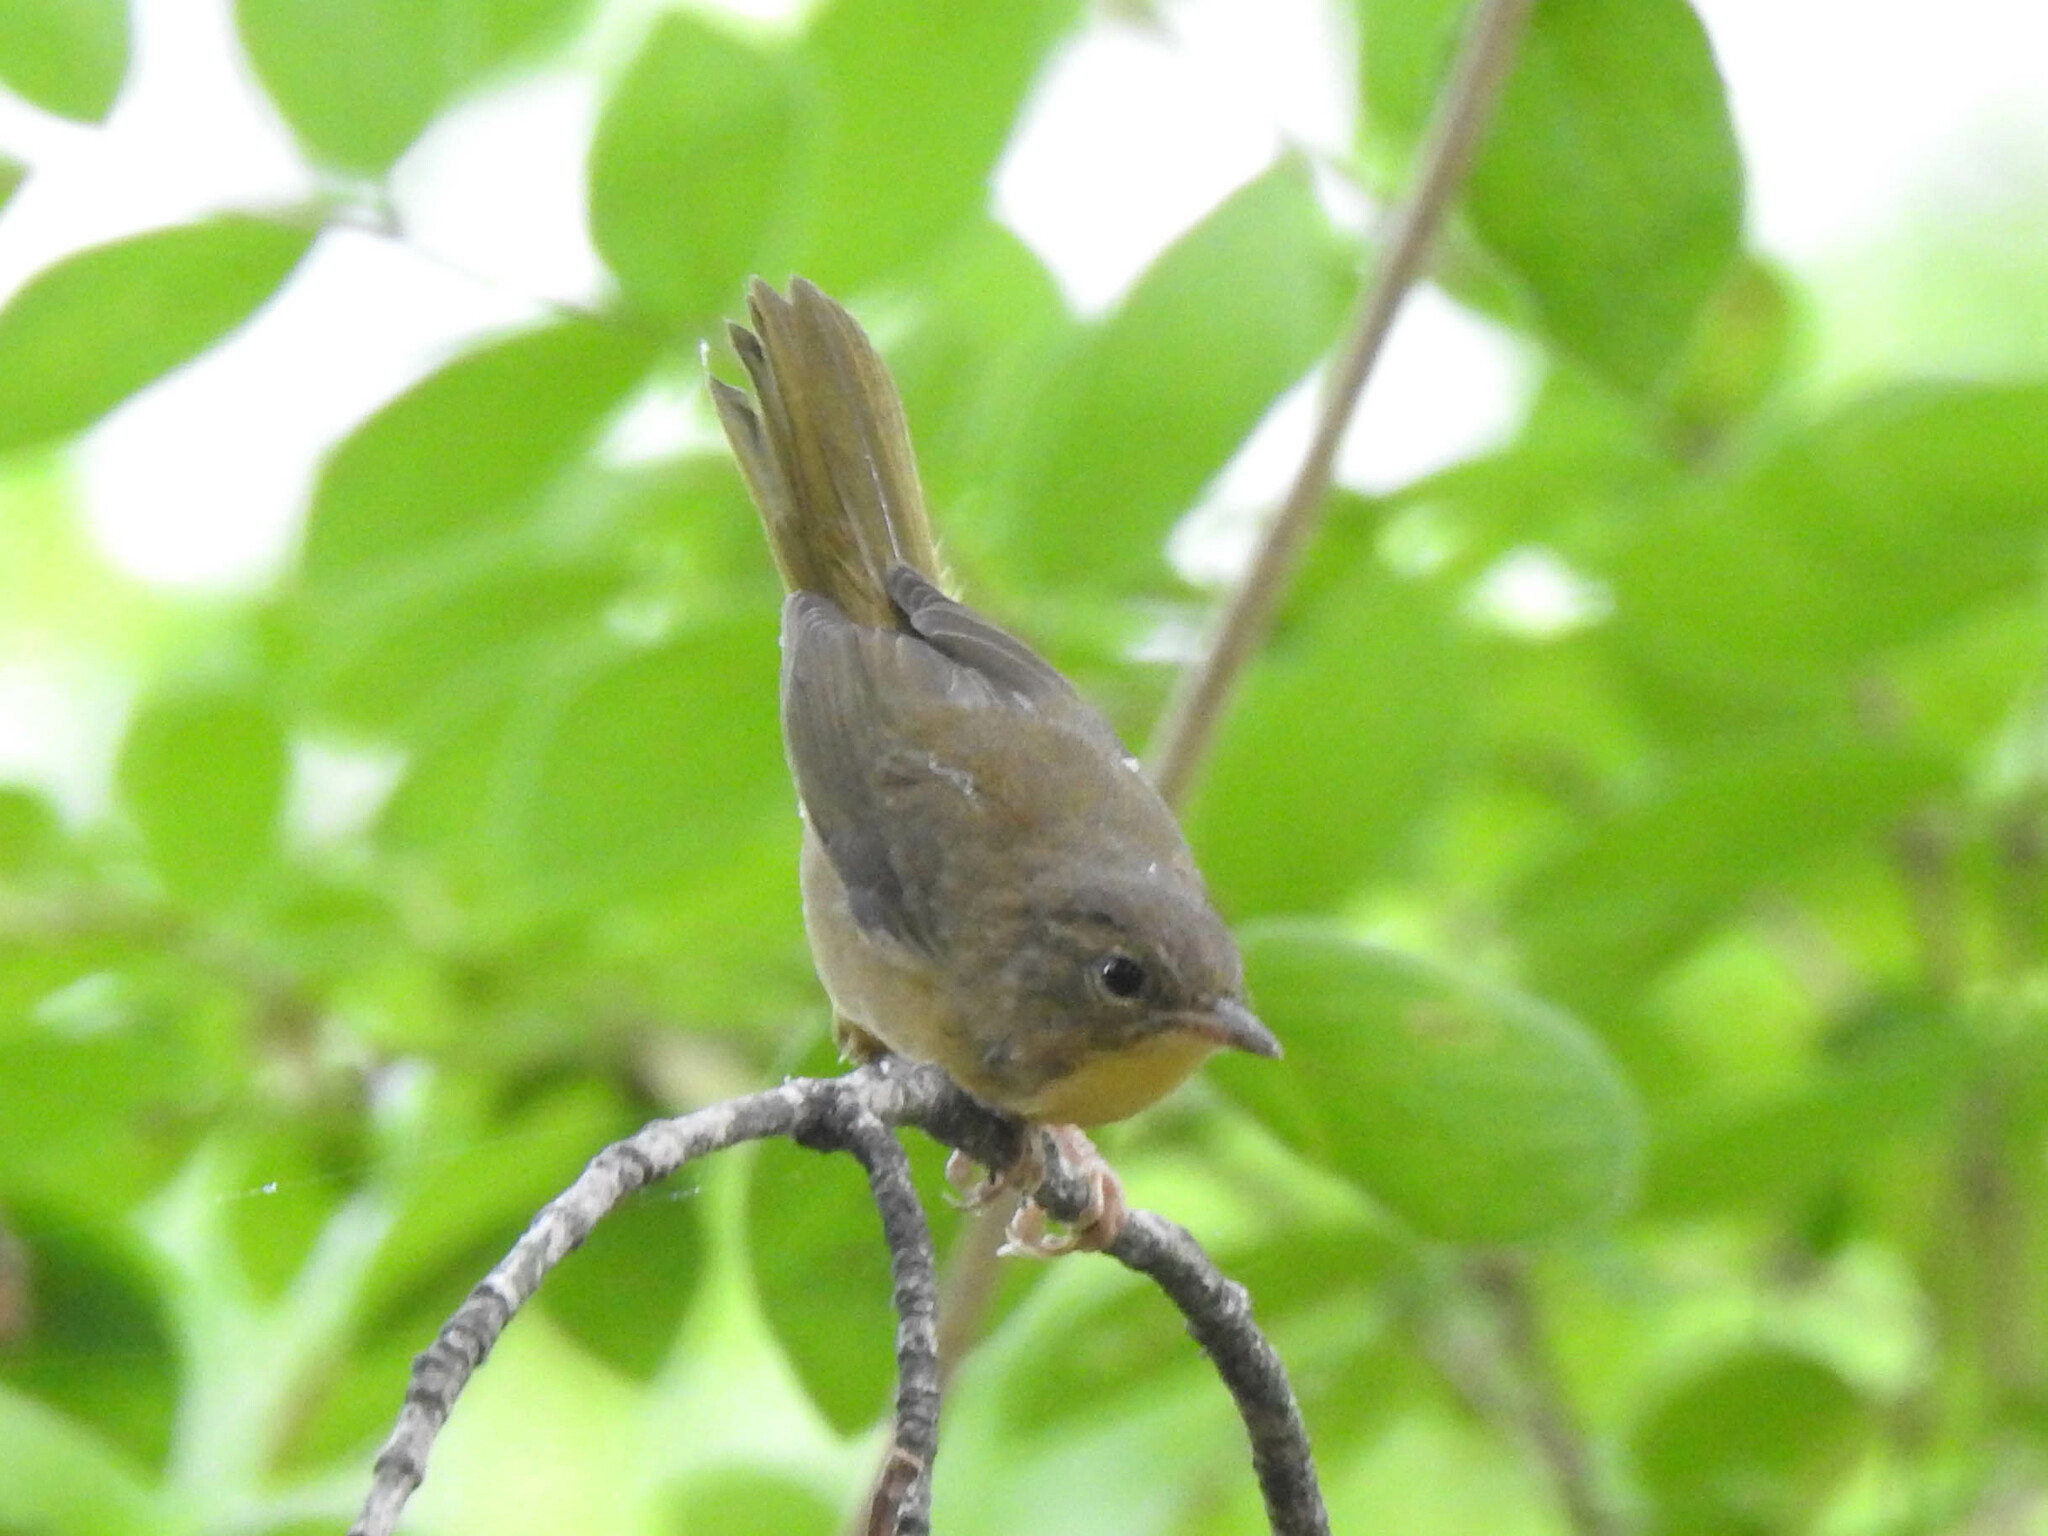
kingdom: Animalia
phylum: Chordata
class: Aves
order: Passeriformes
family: Parulidae
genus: Geothlypis
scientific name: Geothlypis trichas
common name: Common yellowthroat
